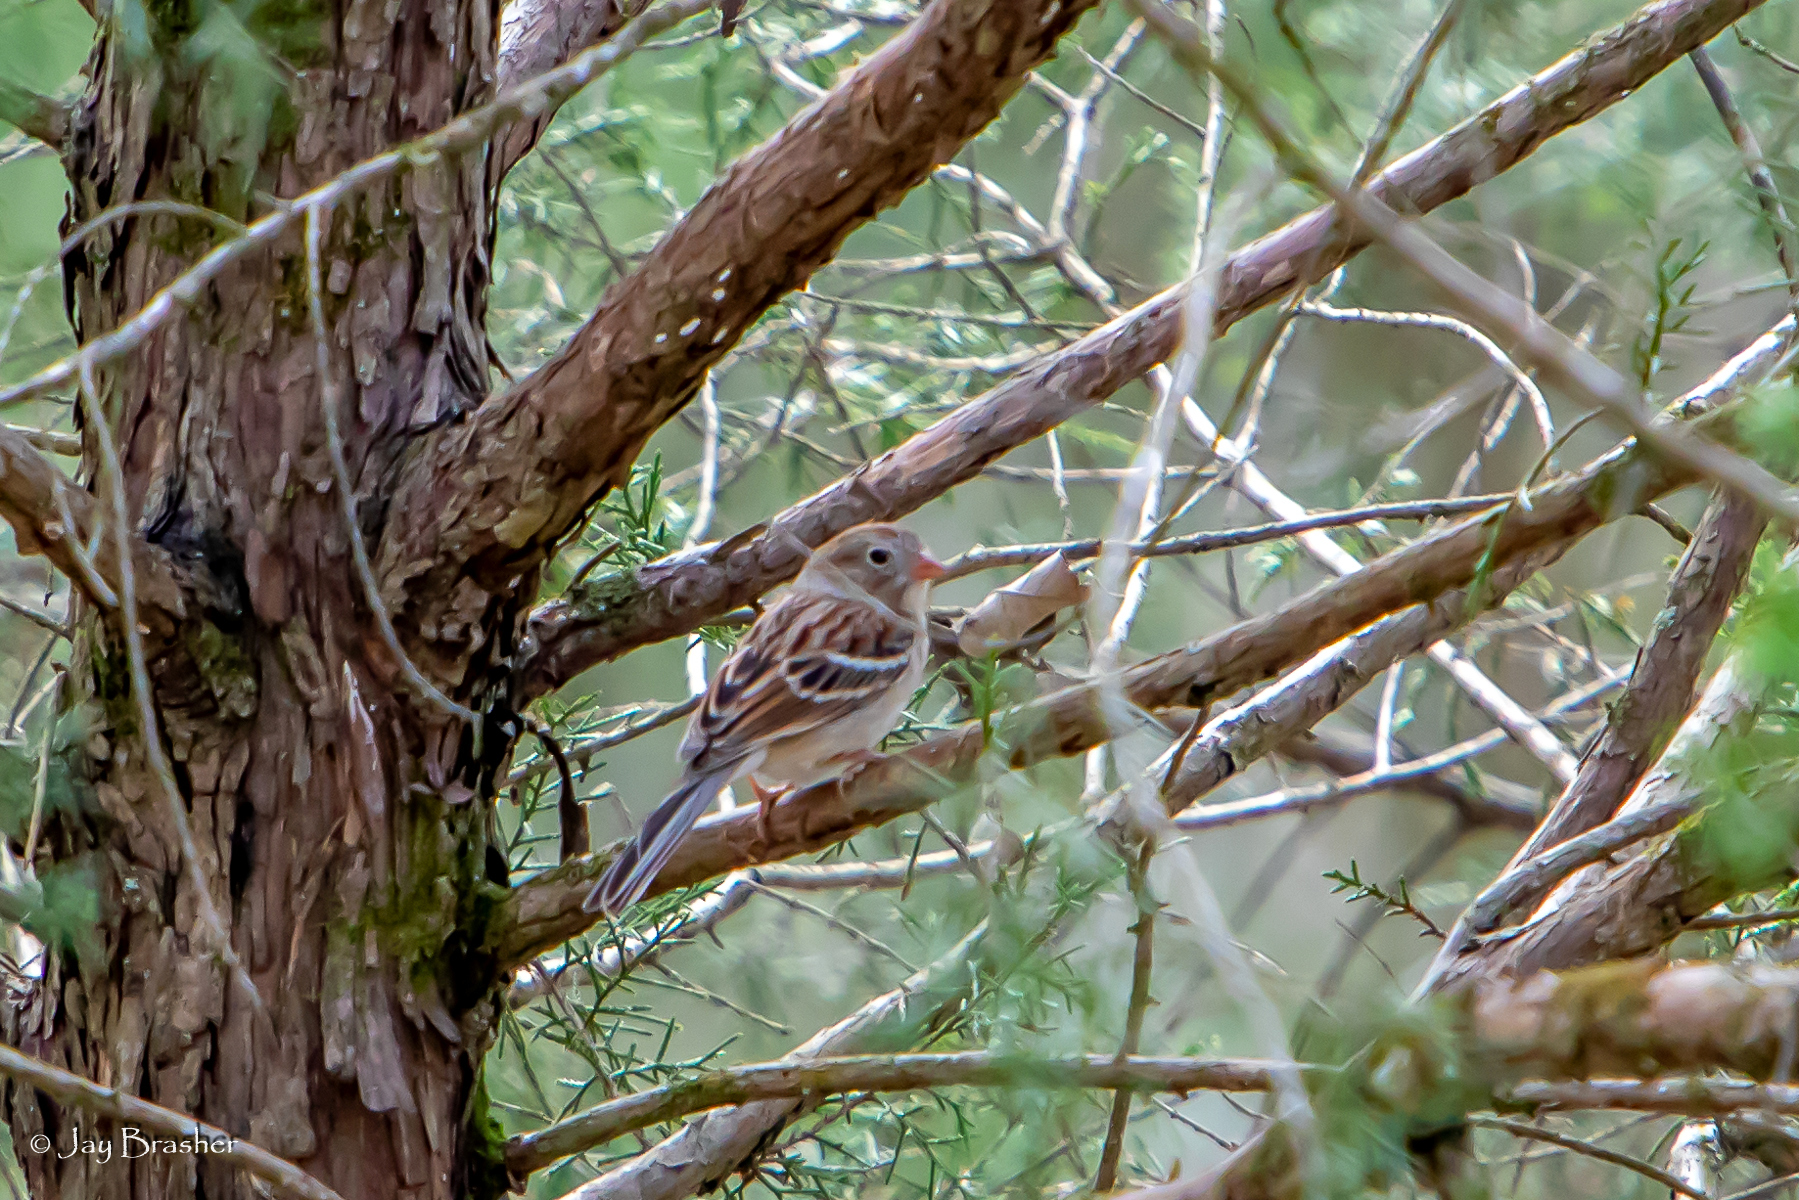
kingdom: Animalia
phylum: Chordata
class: Aves
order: Passeriformes
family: Passerellidae
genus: Spizella
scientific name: Spizella pusilla
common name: Field sparrow
